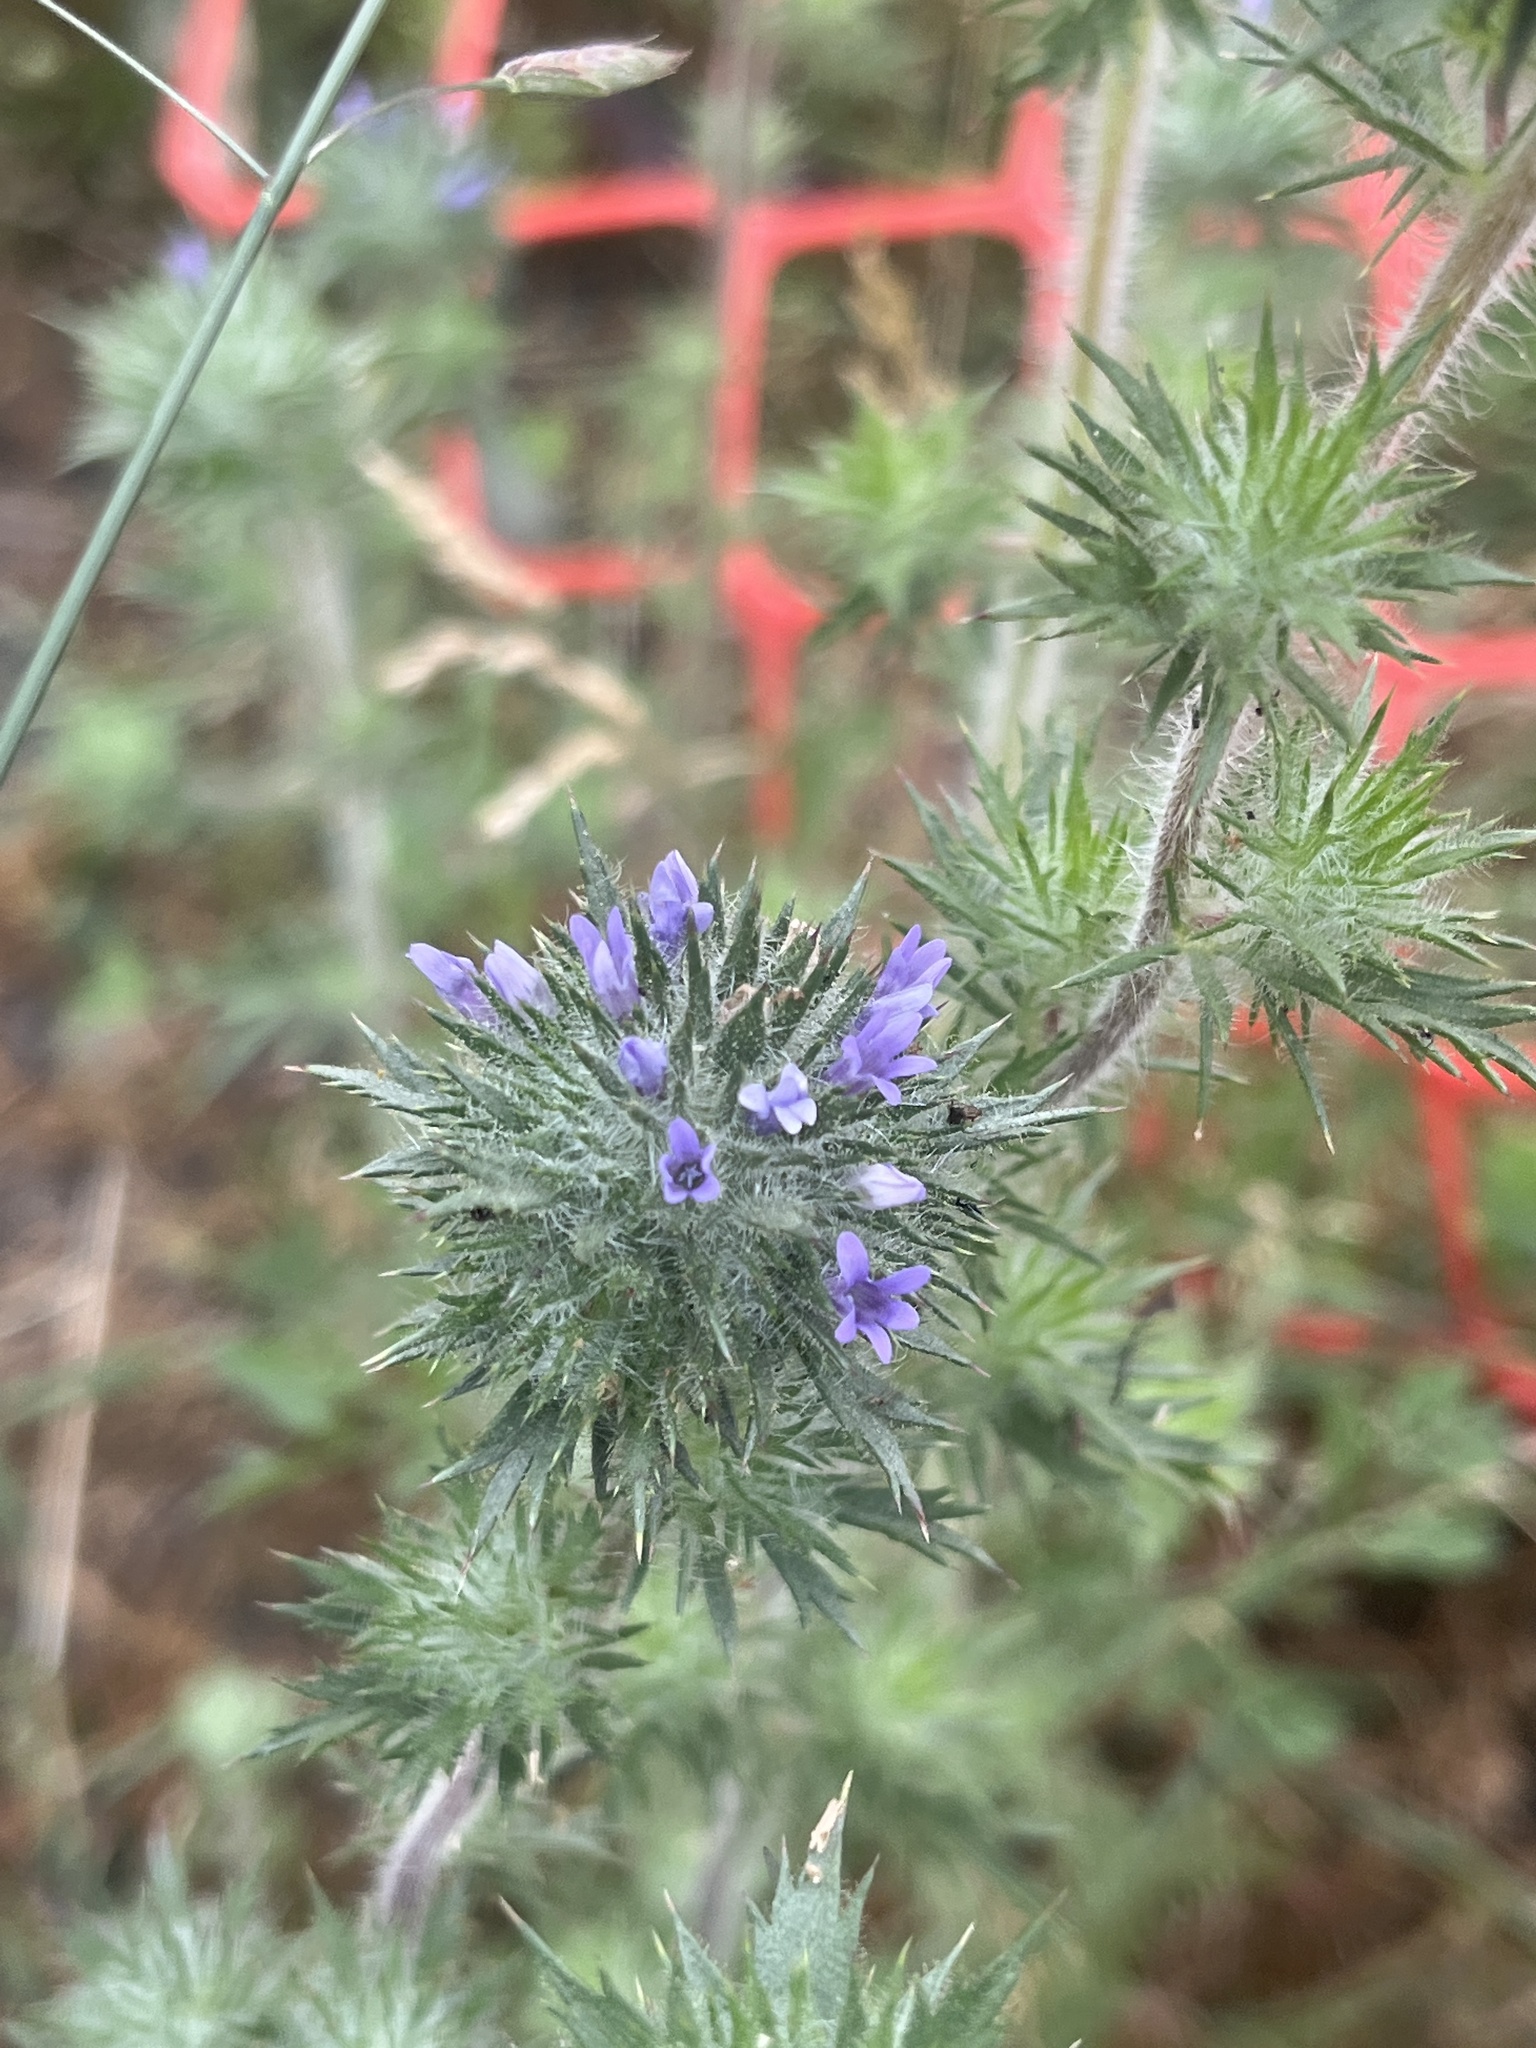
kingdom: Plantae
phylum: Tracheophyta
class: Magnoliopsida
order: Ericales
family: Polemoniaceae
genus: Navarretia
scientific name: Navarretia squarrosa
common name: Skunkweed
